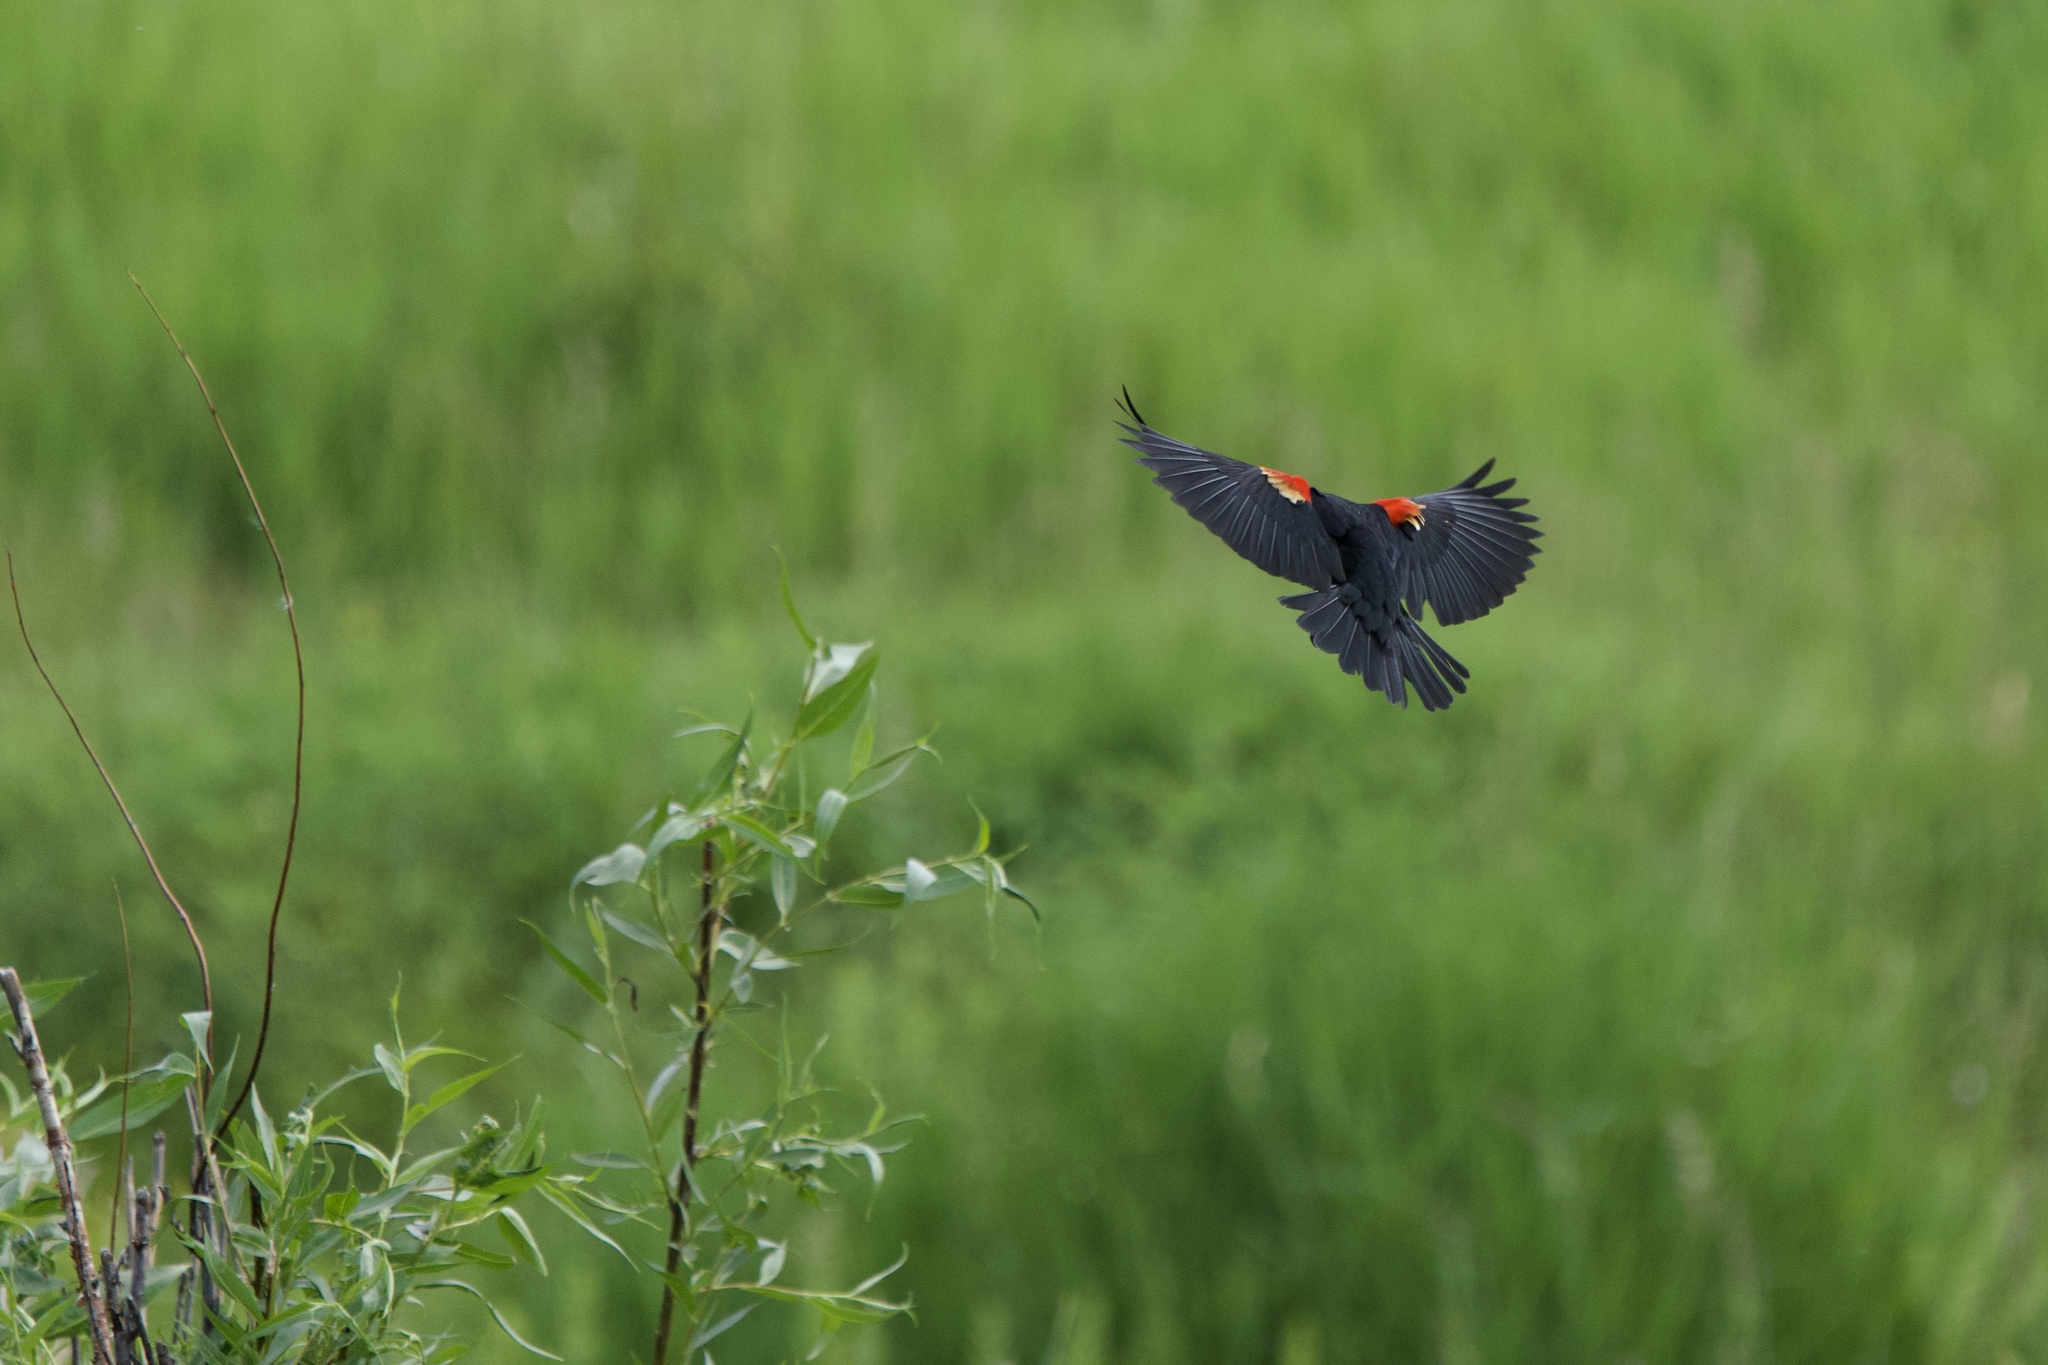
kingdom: Animalia
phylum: Chordata
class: Aves
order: Passeriformes
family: Icteridae
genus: Agelaius
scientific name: Agelaius phoeniceus
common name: Red-winged blackbird
